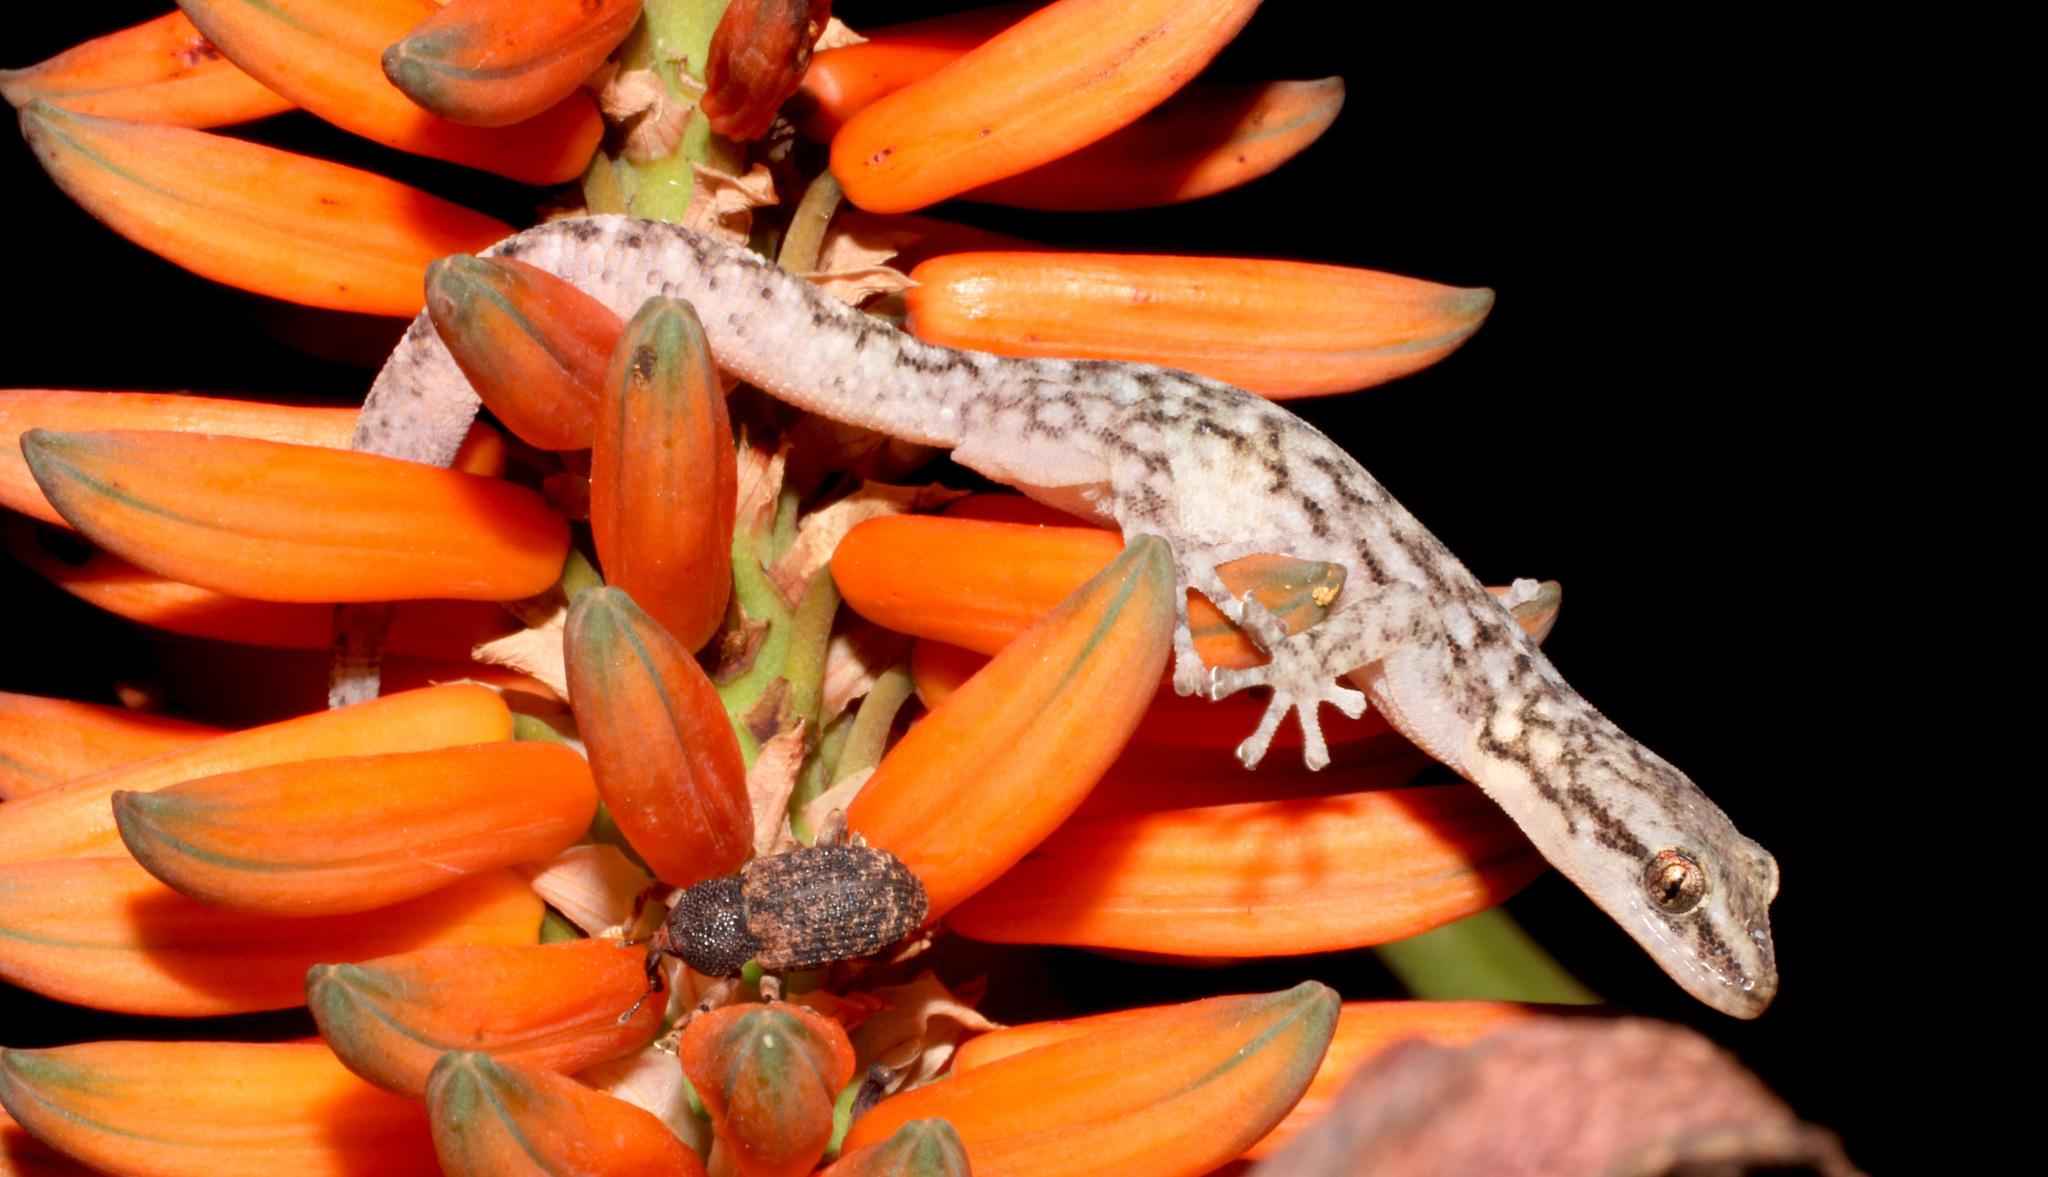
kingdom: Animalia
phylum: Chordata
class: Squamata
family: Gekkonidae
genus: Afrogecko
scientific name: Afrogecko porphyreus
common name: Marbled leaf-toed gecko
